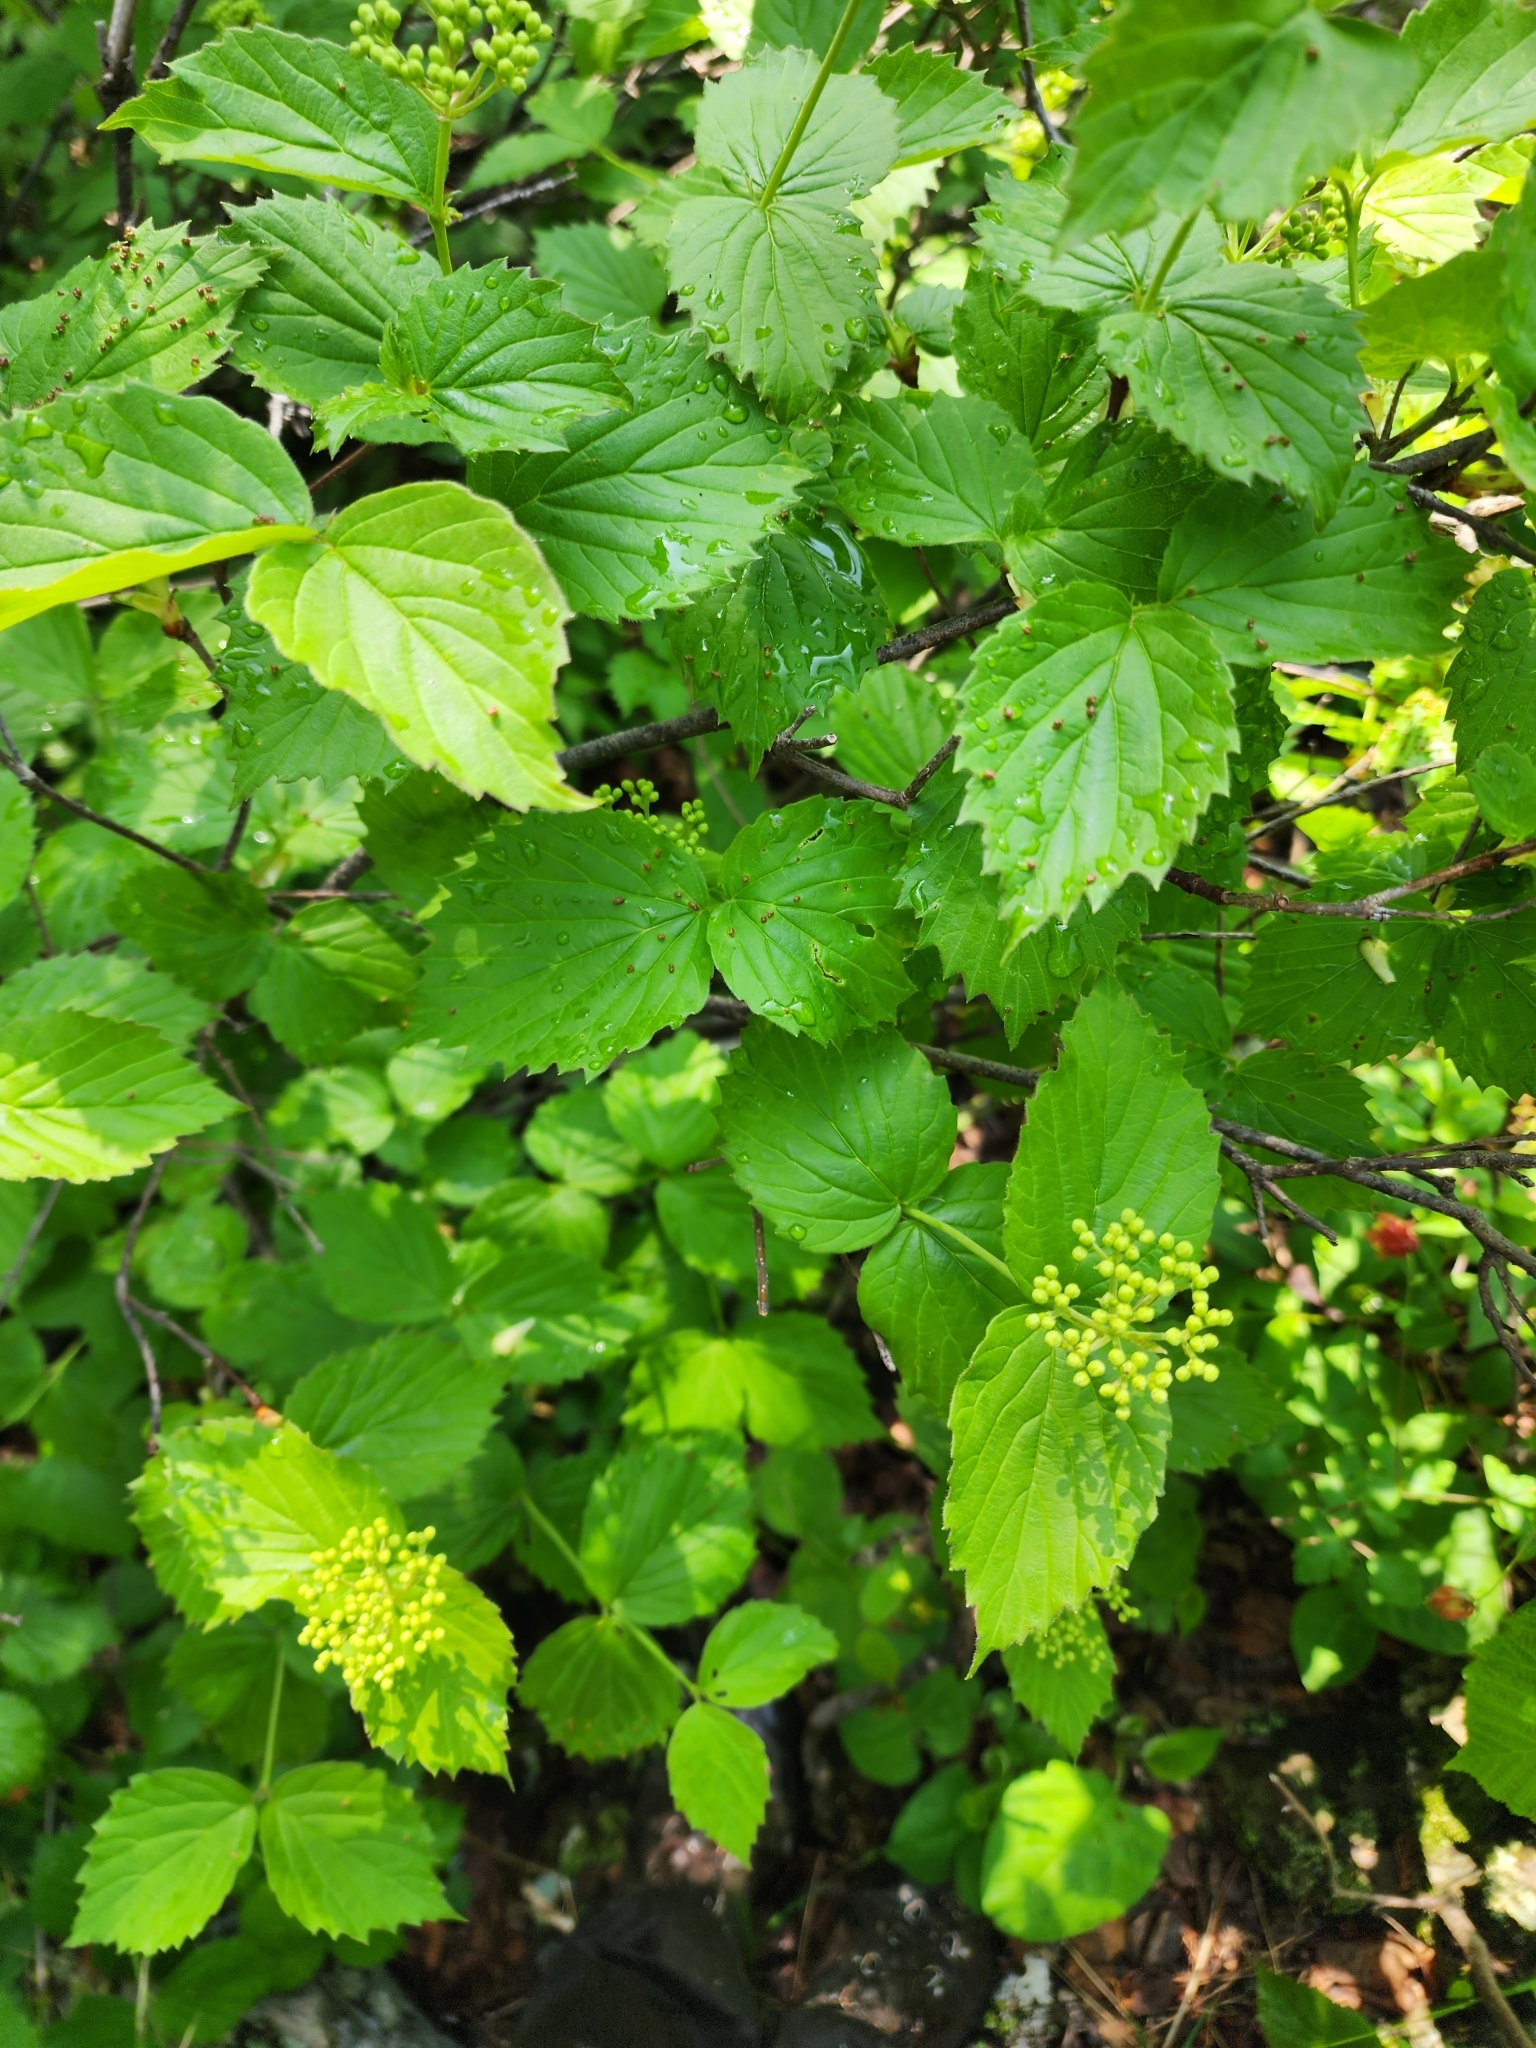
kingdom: Plantae
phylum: Tracheophyta
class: Magnoliopsida
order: Dipsacales
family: Viburnaceae
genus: Viburnum
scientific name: Viburnum rafinesqueanum
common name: Downy arrow-wood
